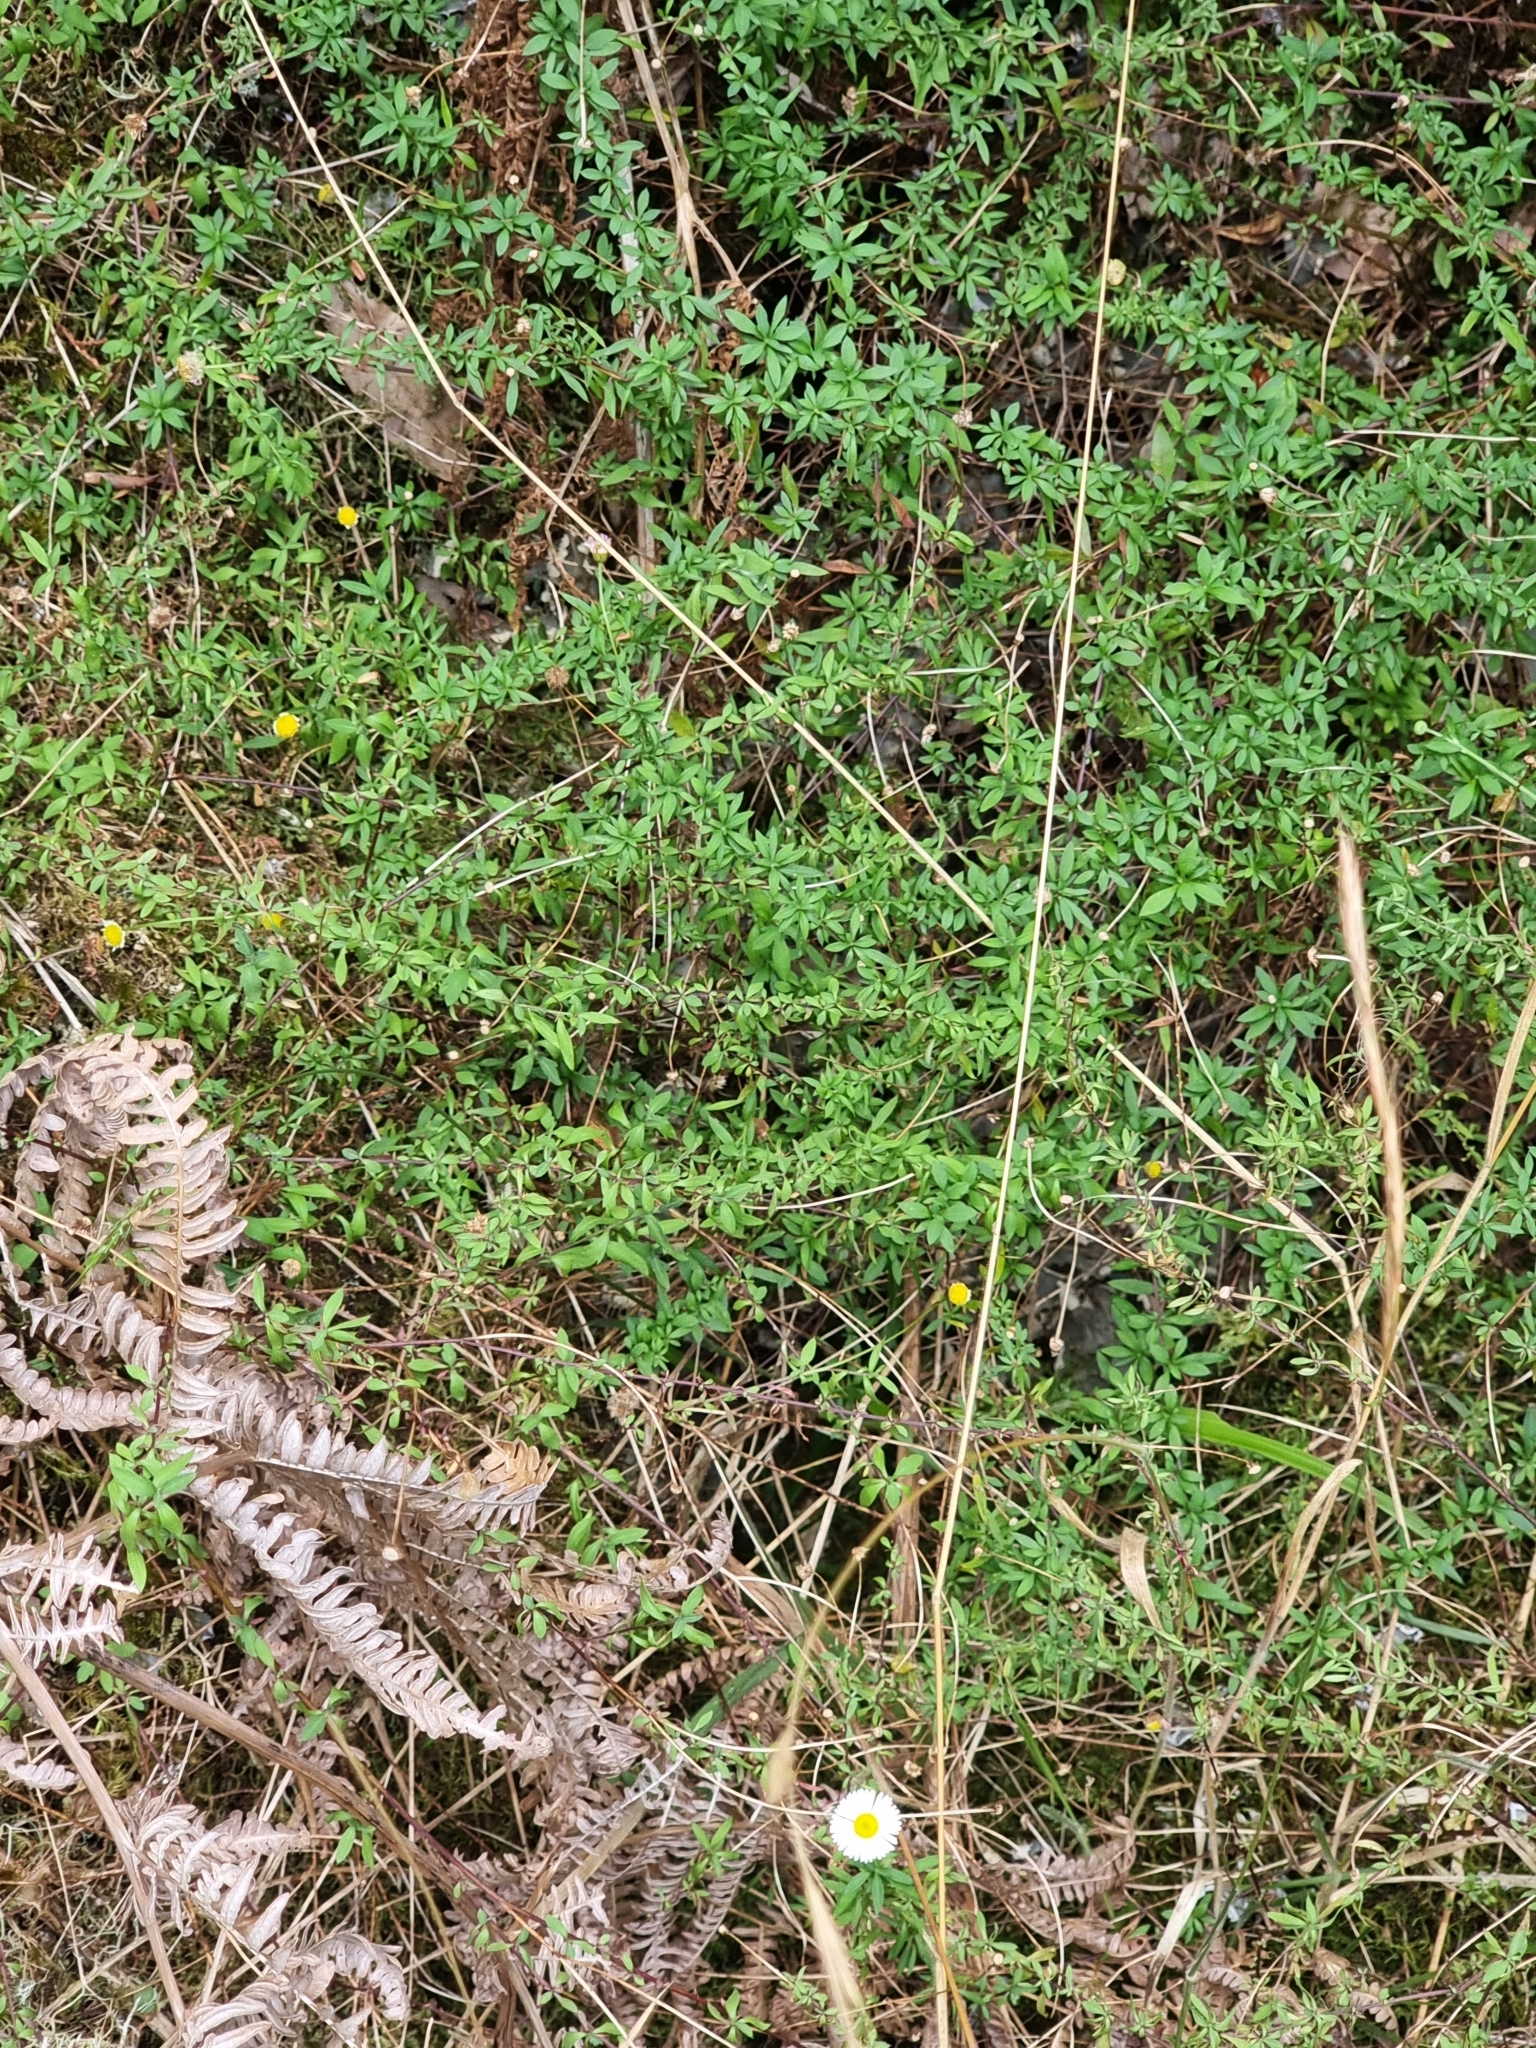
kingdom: Plantae
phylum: Tracheophyta
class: Magnoliopsida
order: Asterales
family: Asteraceae
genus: Erigeron
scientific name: Erigeron karvinskianus
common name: Mexican fleabane
